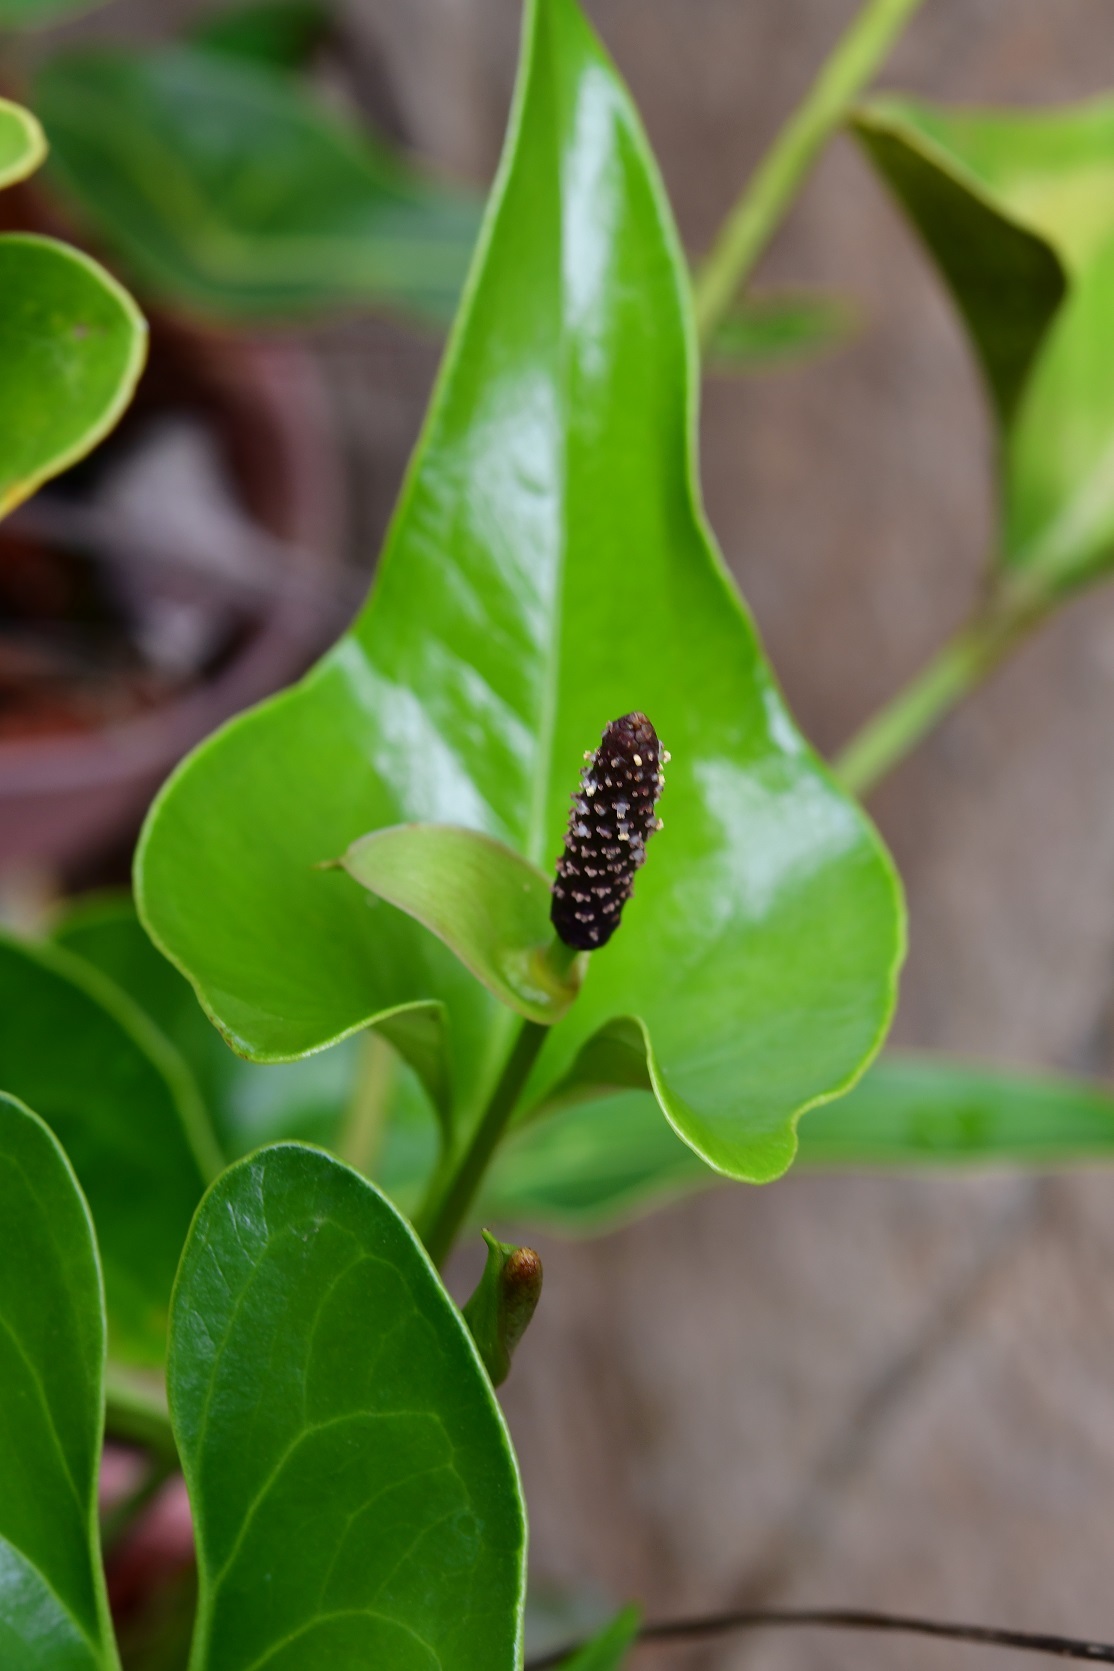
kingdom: Plantae
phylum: Tracheophyta
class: Liliopsida
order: Alismatales
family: Araceae
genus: Anthurium
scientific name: Anthurium cerrobaulense
